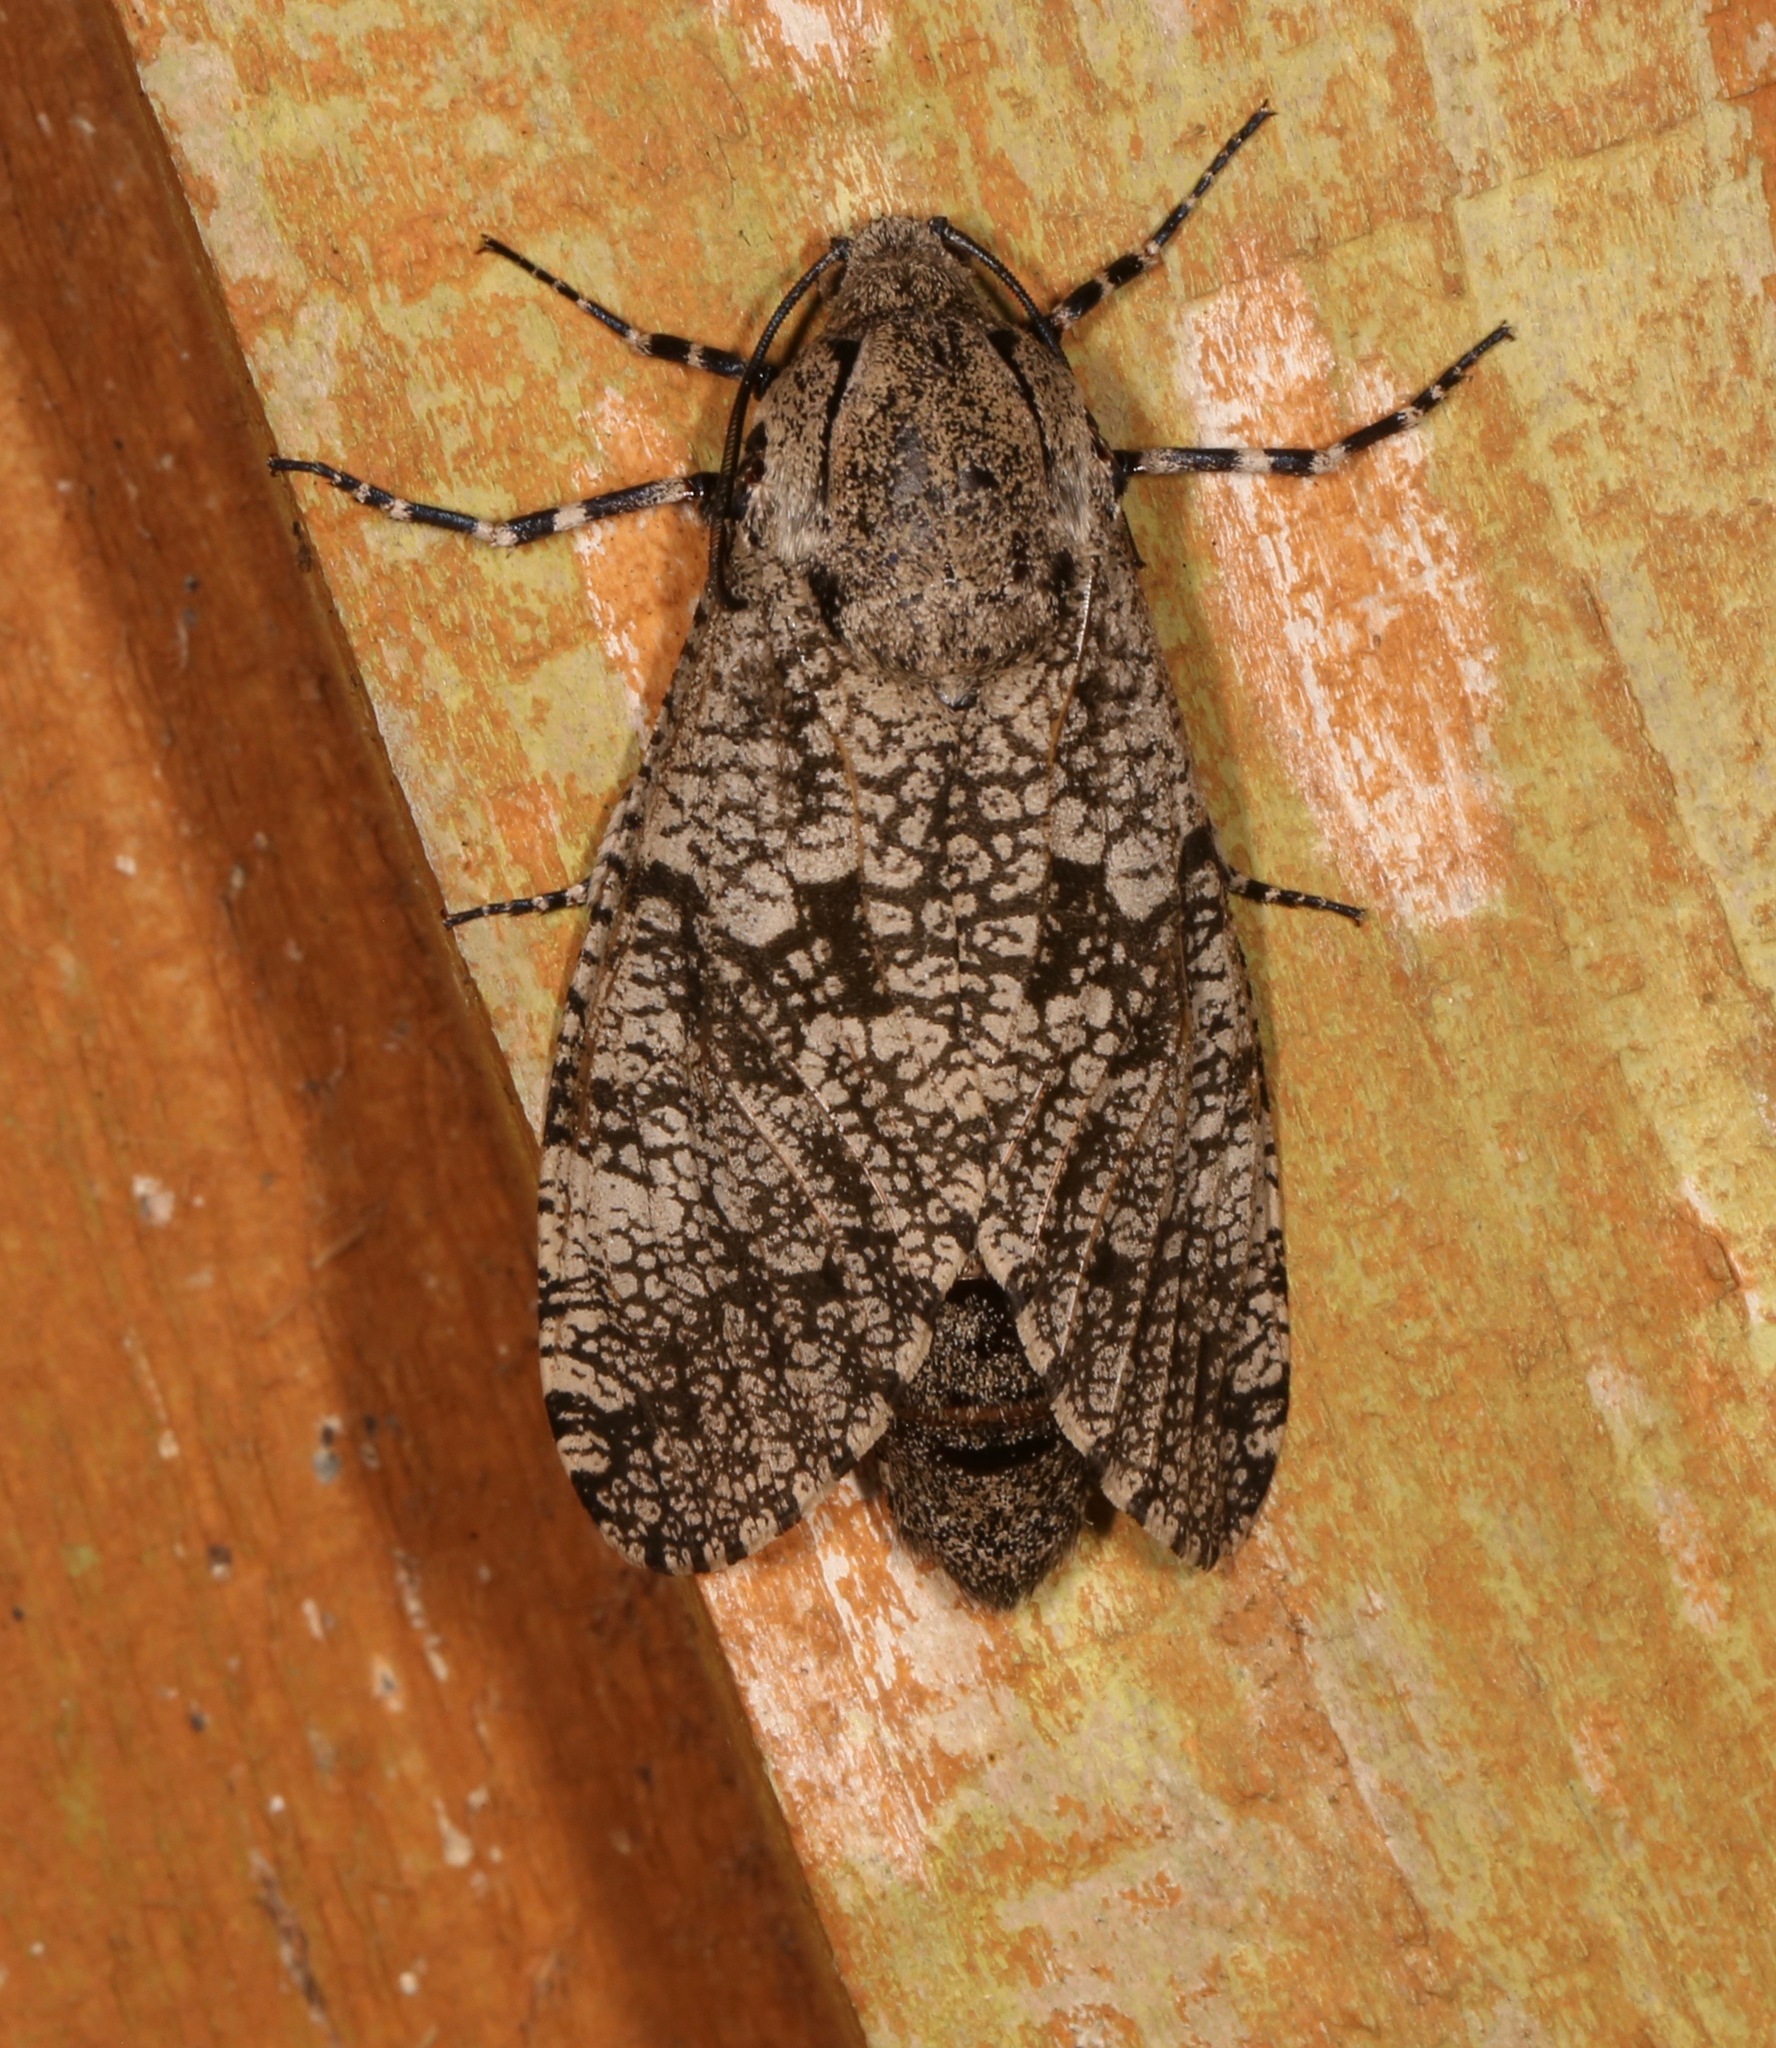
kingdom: Animalia
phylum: Arthropoda
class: Insecta
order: Lepidoptera
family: Cossidae
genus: Prionoxystus
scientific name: Prionoxystus robiniae
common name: Carpenterworm
